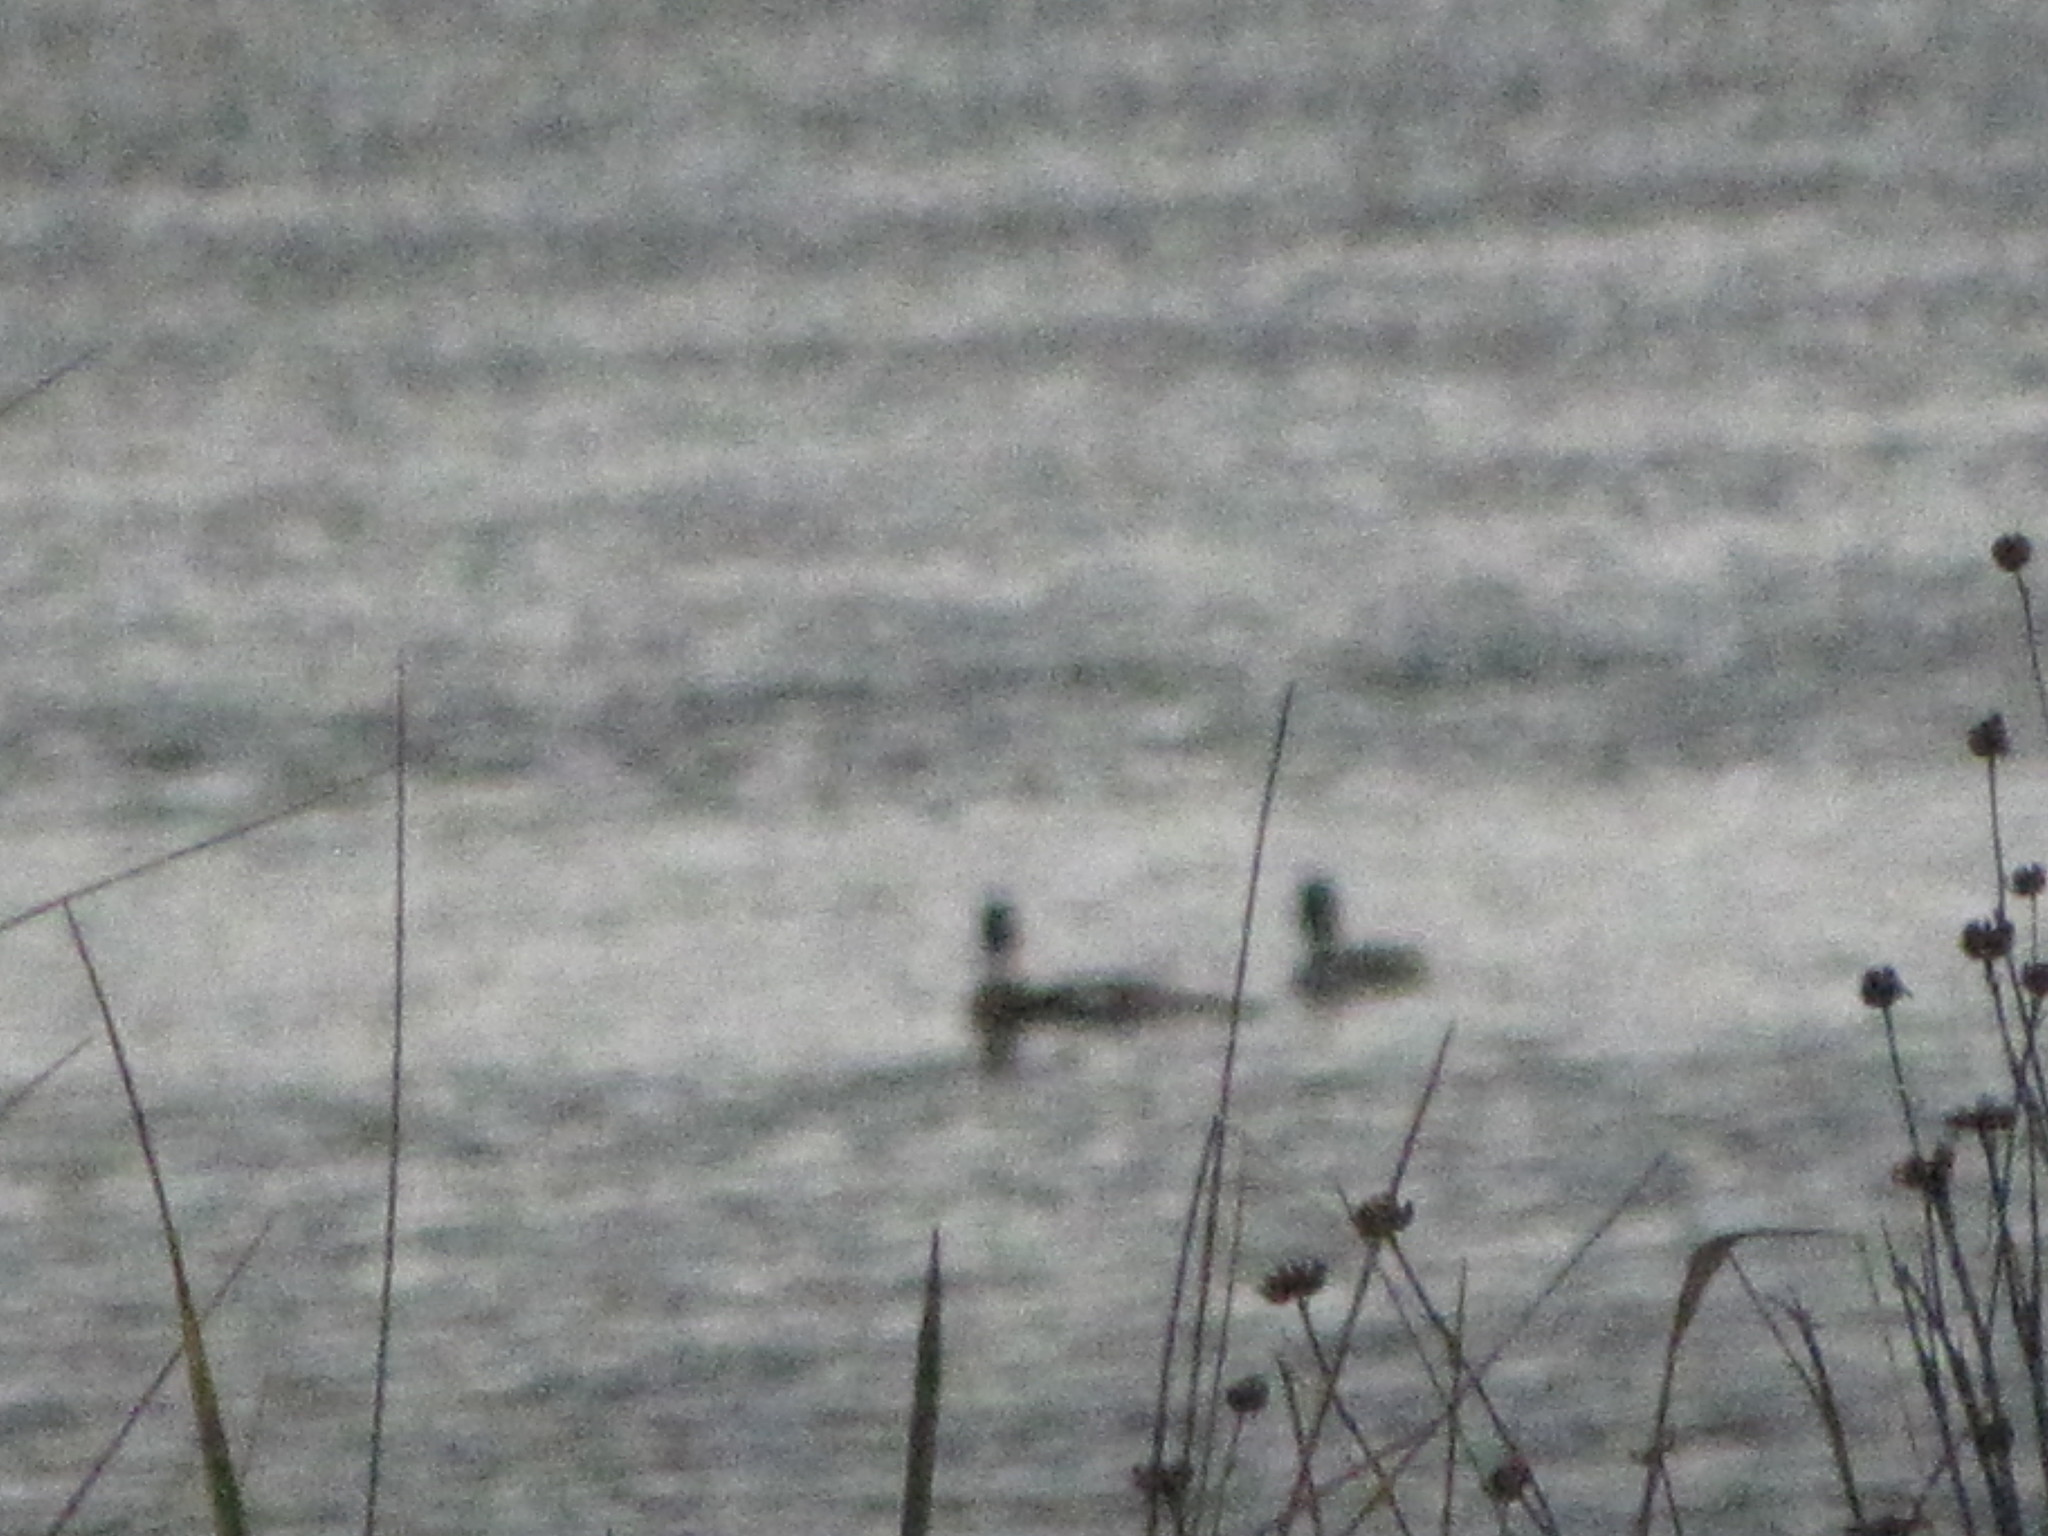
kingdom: Animalia
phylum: Chordata
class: Aves
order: Anseriformes
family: Anatidae
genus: Mergus
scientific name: Mergus serrator
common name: Red-breasted merganser
